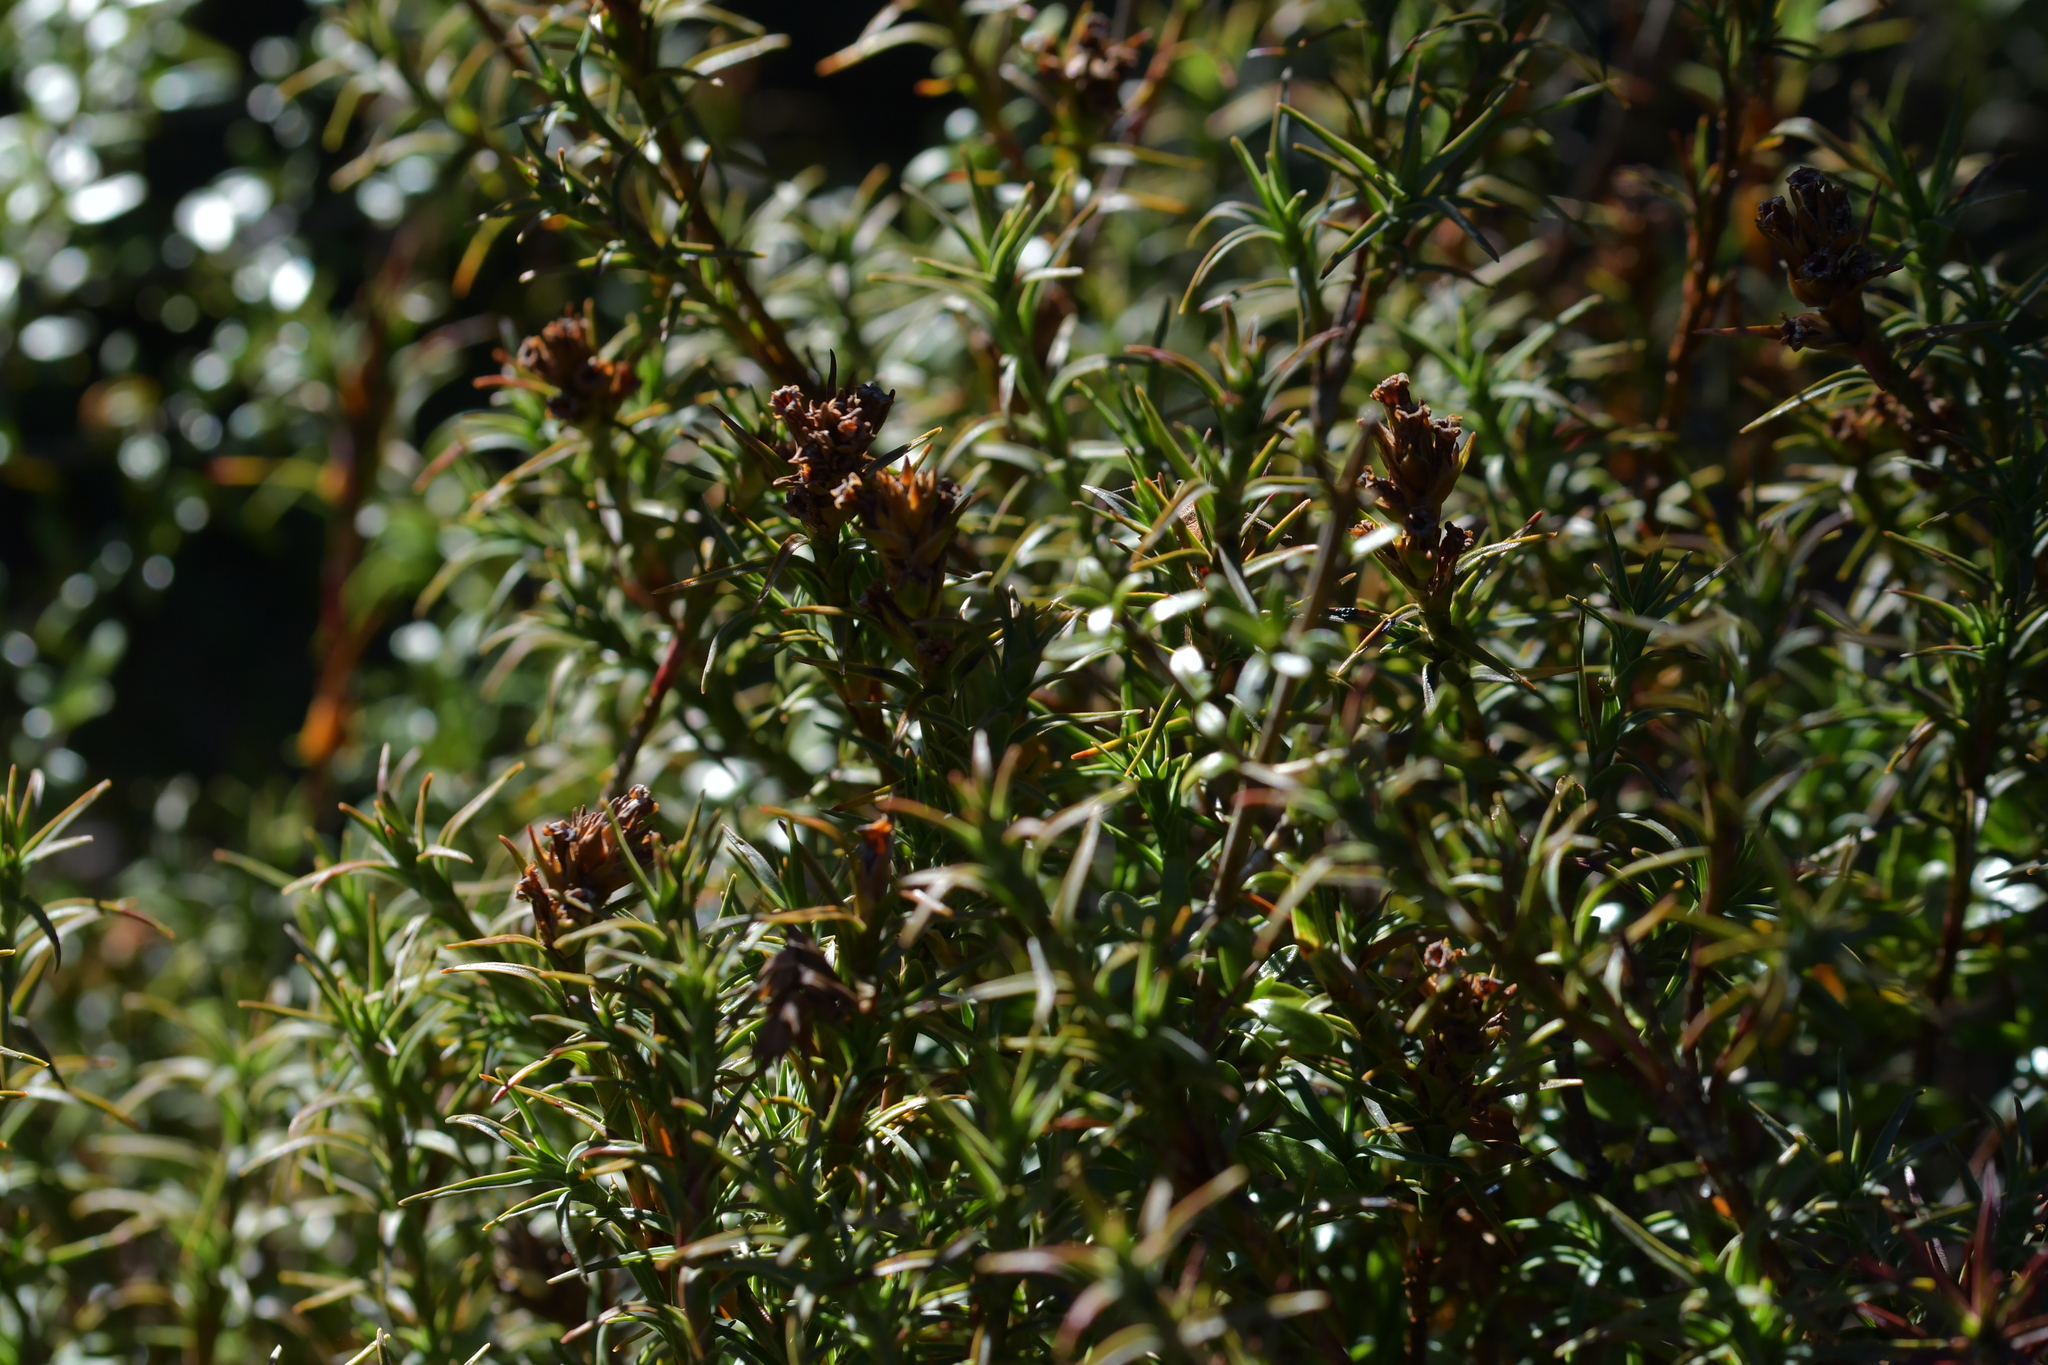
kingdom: Plantae
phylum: Tracheophyta
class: Magnoliopsida
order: Ericales
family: Ericaceae
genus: Dracophyllum
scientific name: Dracophyllum
